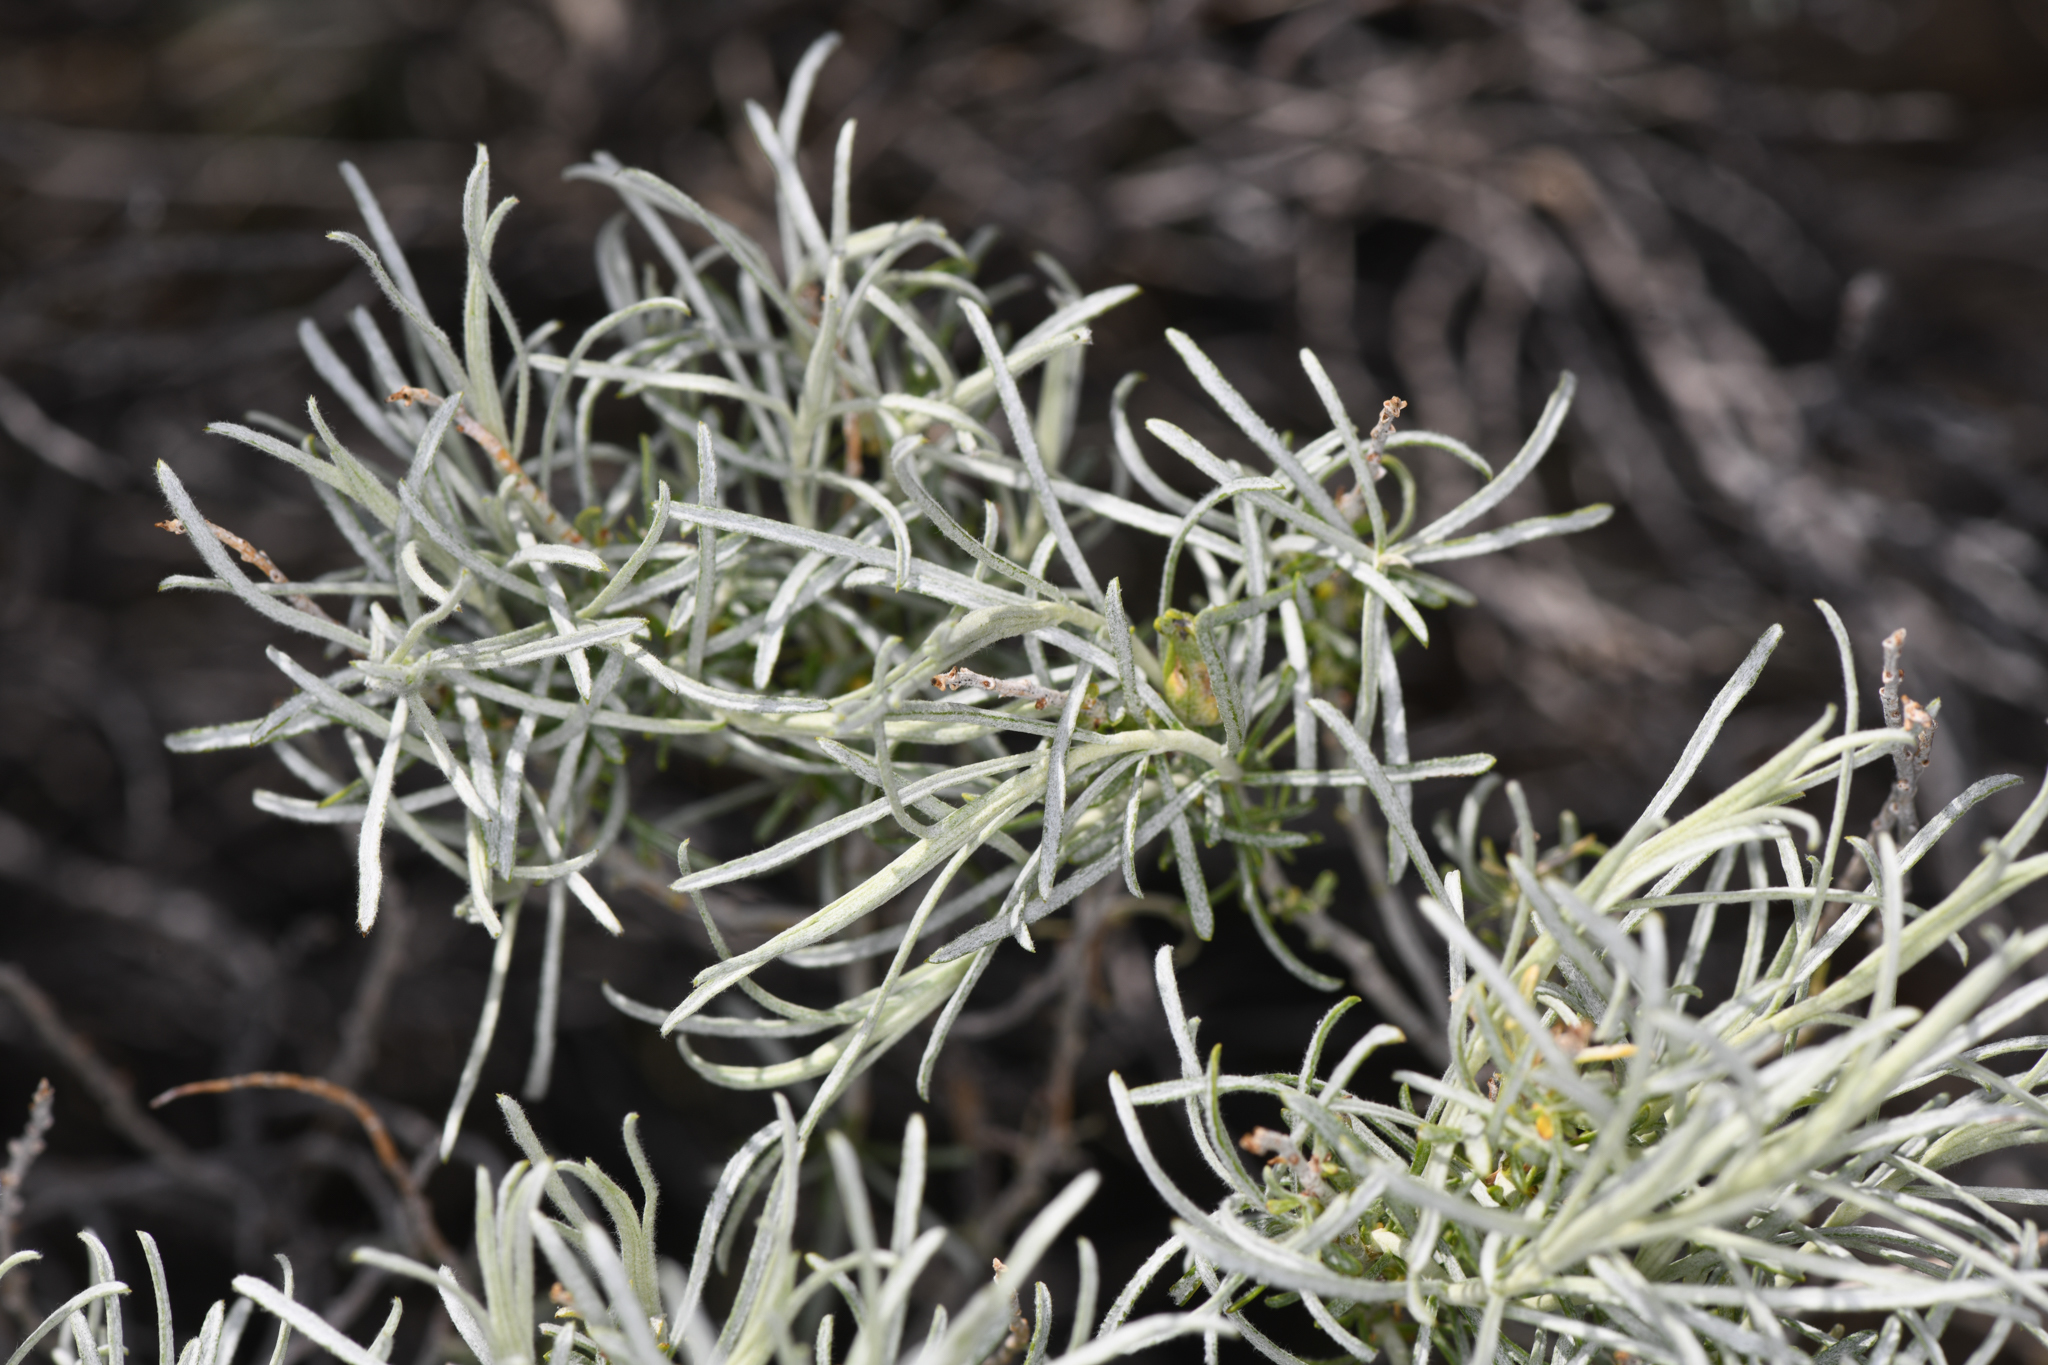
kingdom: Animalia
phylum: Arthropoda
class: Insecta
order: Lepidoptera
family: Gelechiidae
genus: Gnorimoschema
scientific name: Gnorimoschema octomaculella
